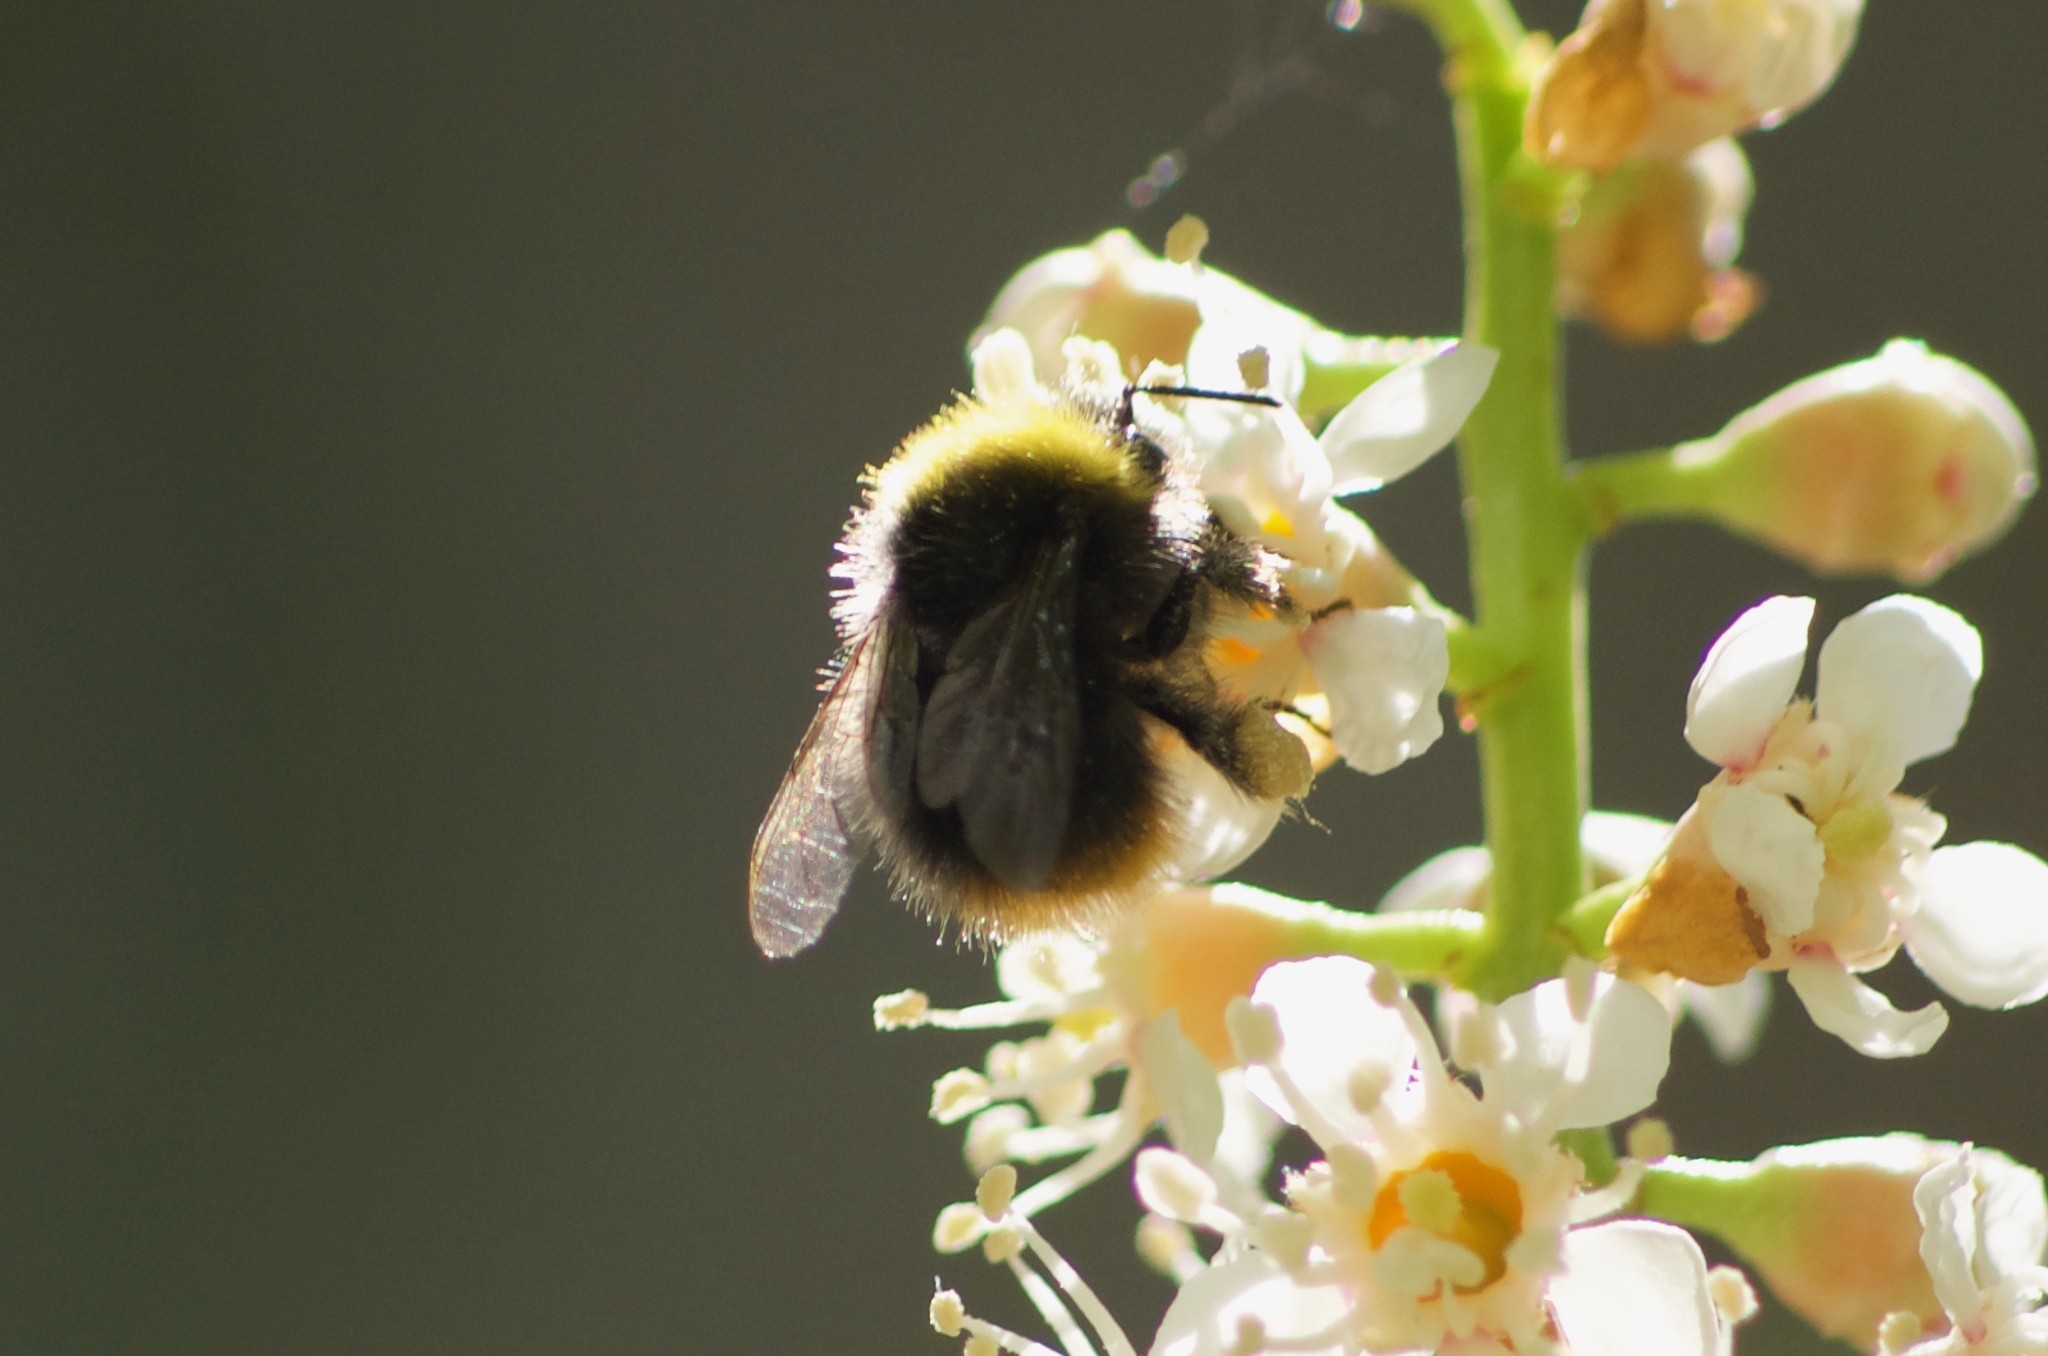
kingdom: Animalia
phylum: Arthropoda
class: Insecta
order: Hymenoptera
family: Apidae
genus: Bombus
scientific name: Bombus pratorum
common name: Early humble-bee
